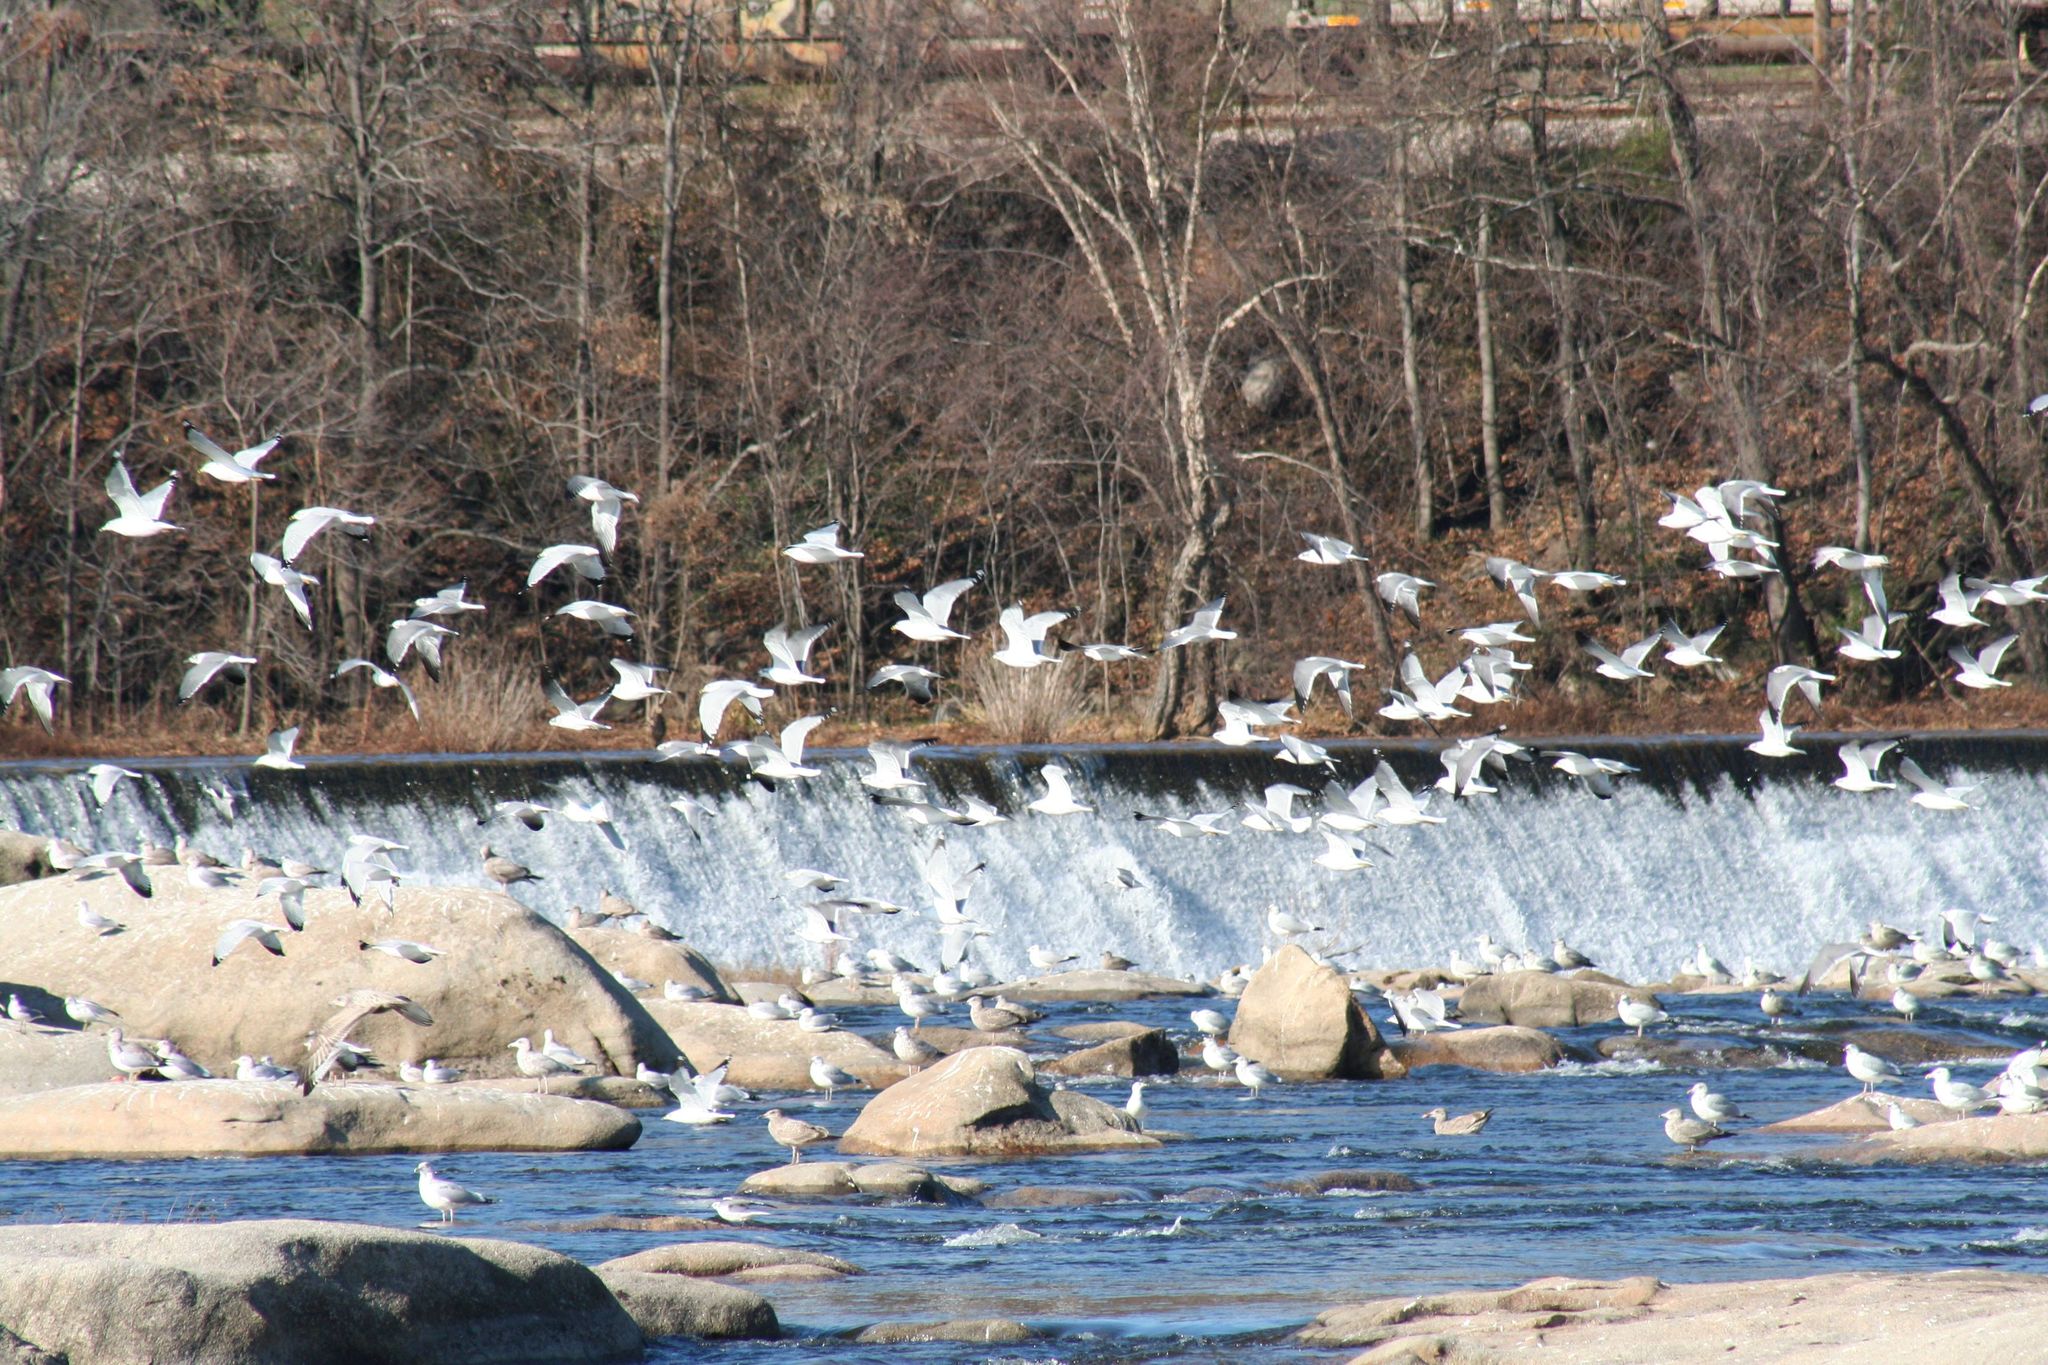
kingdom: Animalia
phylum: Chordata
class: Aves
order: Charadriiformes
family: Laridae
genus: Larus
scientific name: Larus delawarensis
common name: Ring-billed gull
